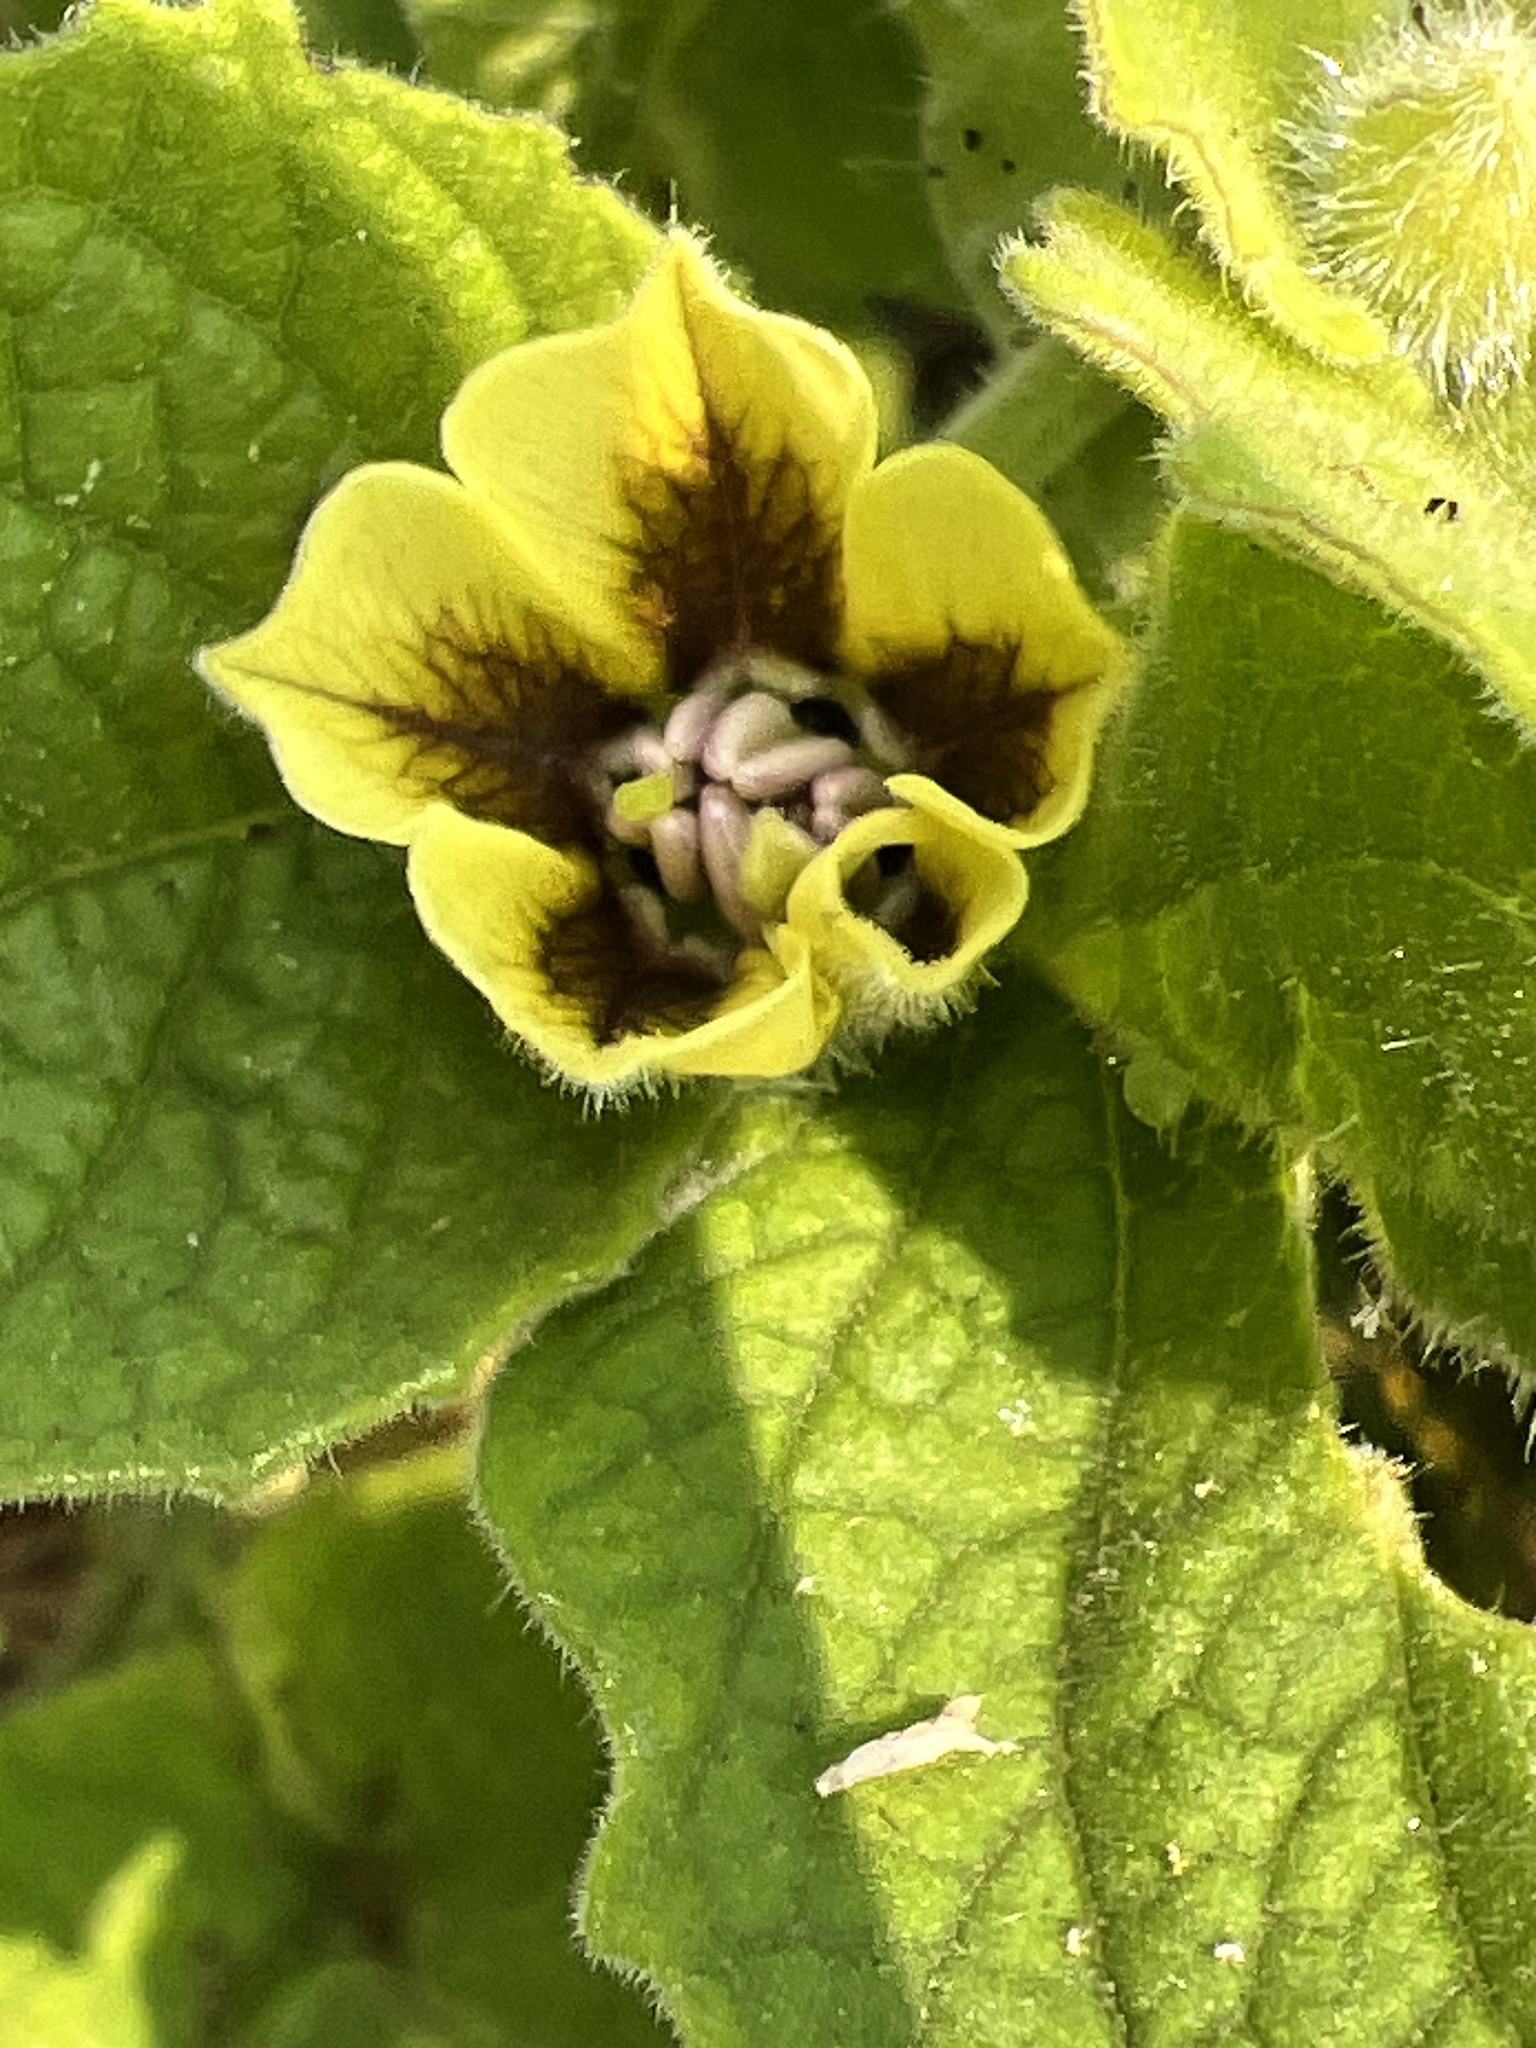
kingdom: Plantae
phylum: Tracheophyta
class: Magnoliopsida
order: Solanales
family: Solanaceae
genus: Physalis
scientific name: Physalis heterophylla
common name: Clammy ground-cherry
